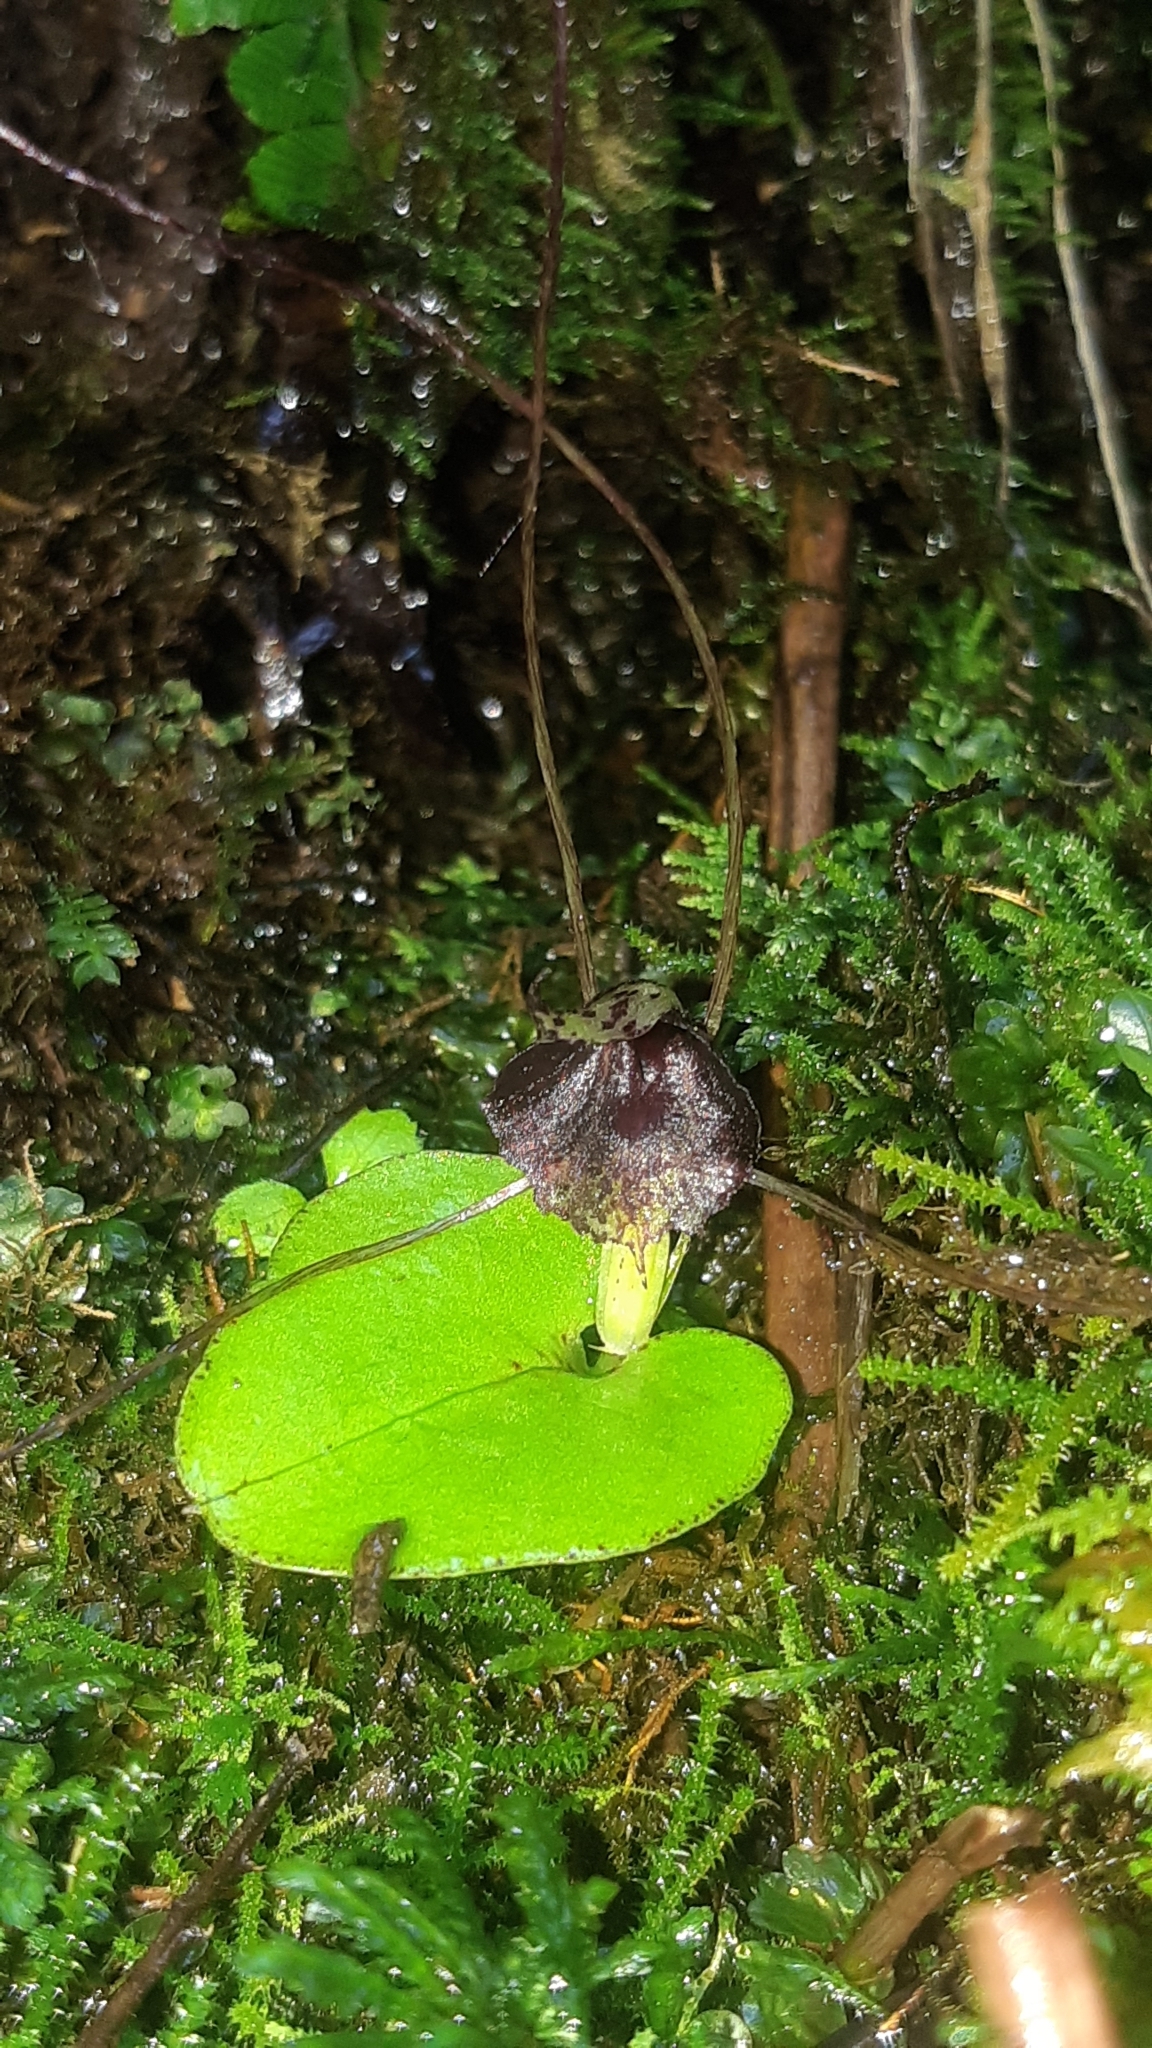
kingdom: Plantae
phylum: Tracheophyta
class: Liliopsida
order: Asparagales
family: Orchidaceae
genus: Corybas
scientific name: Corybas iridescens
